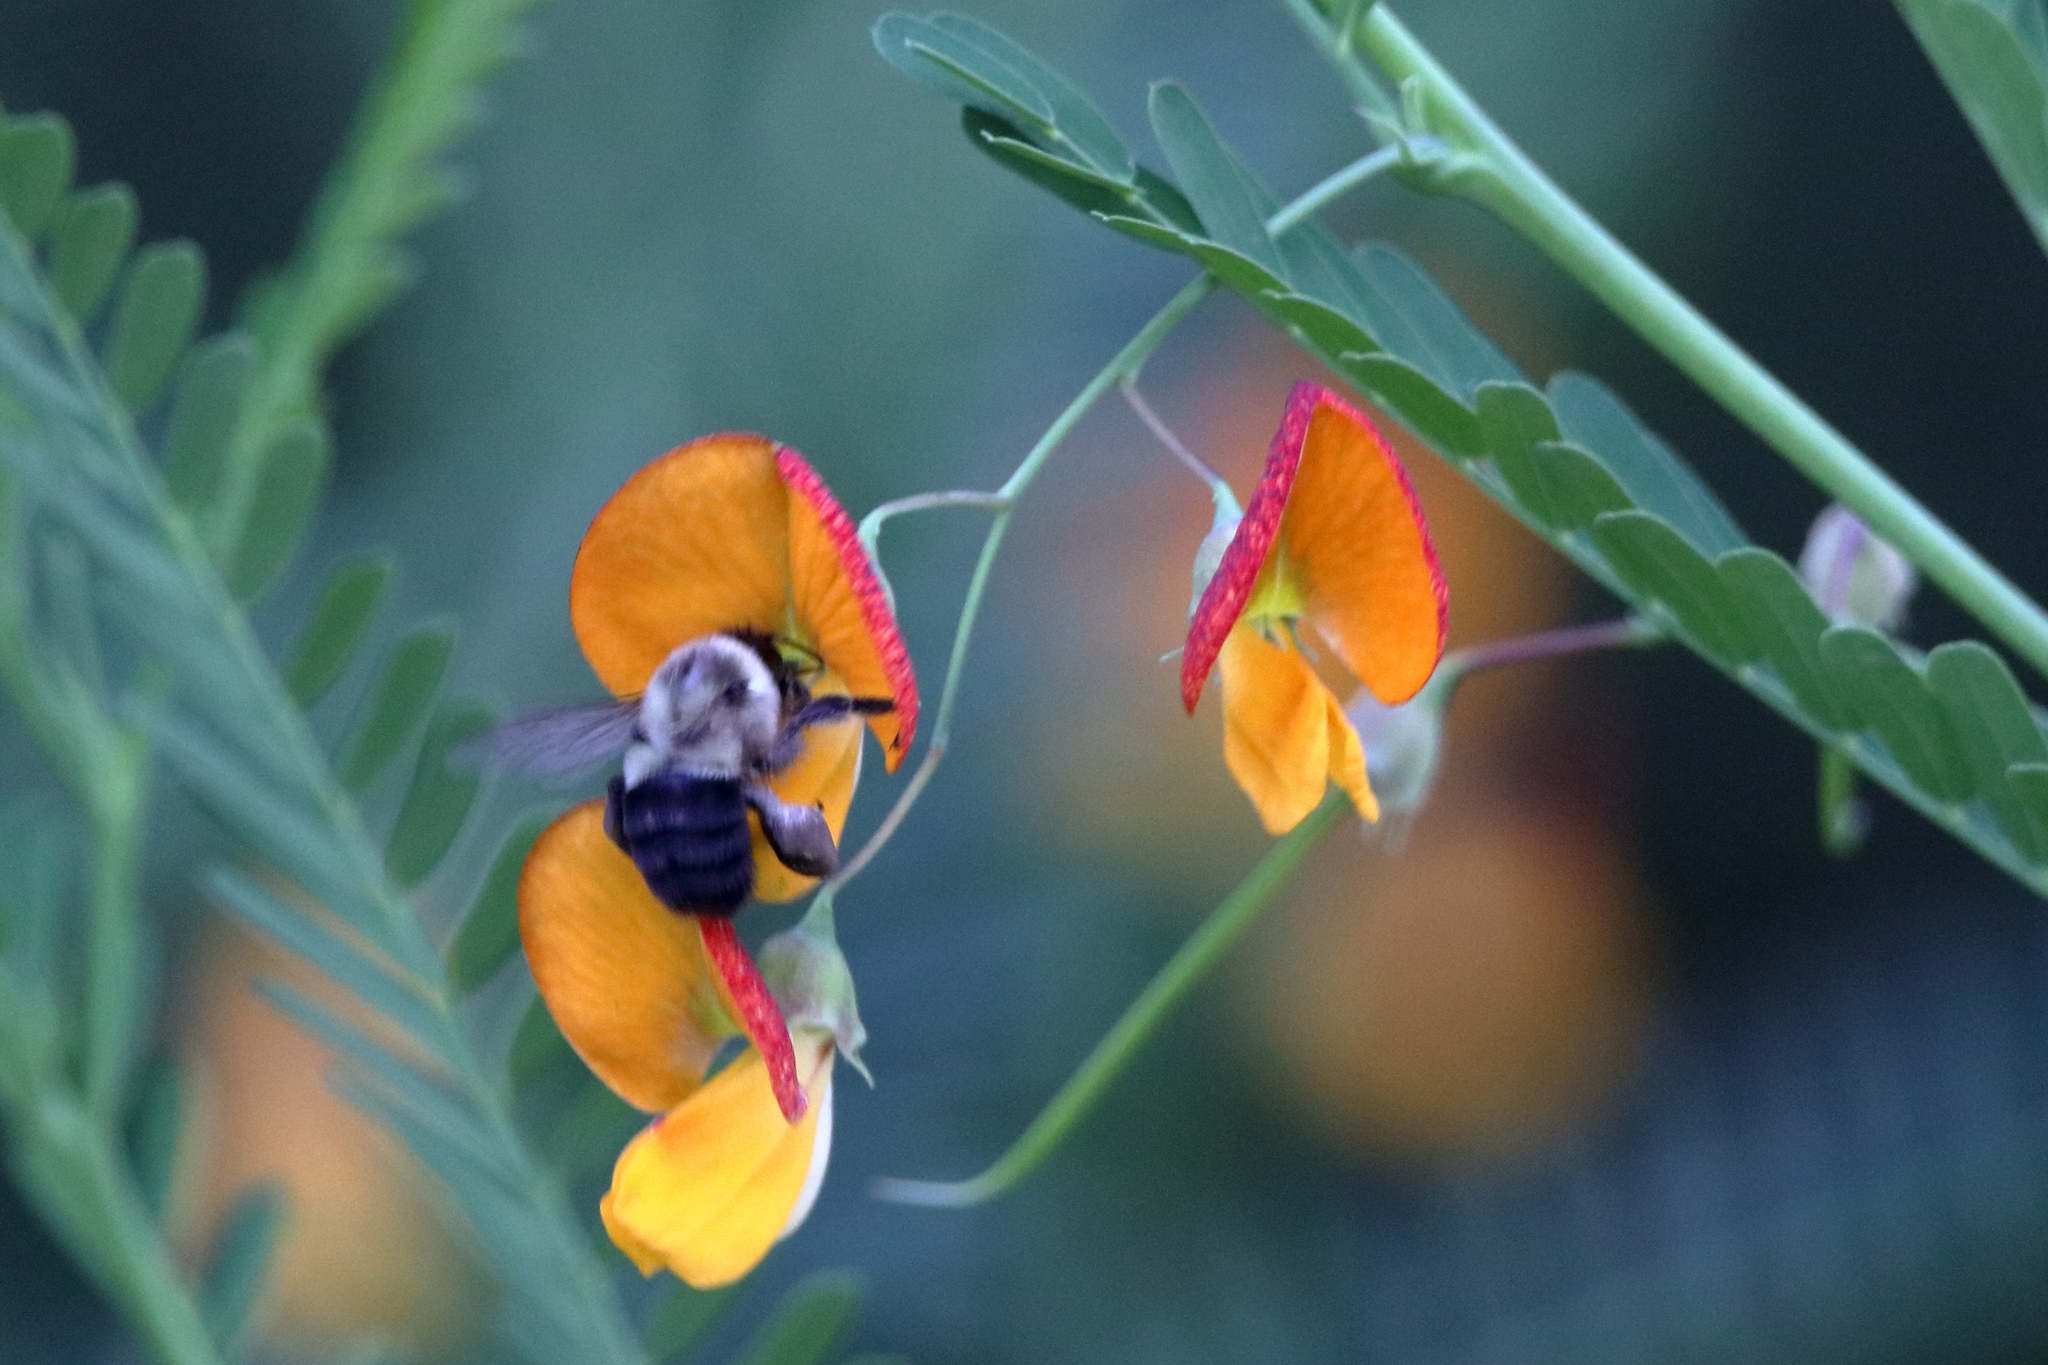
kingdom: Animalia
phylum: Arthropoda
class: Insecta
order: Hymenoptera
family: Apidae
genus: Bombus
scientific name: Bombus impatiens
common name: Common eastern bumble bee
